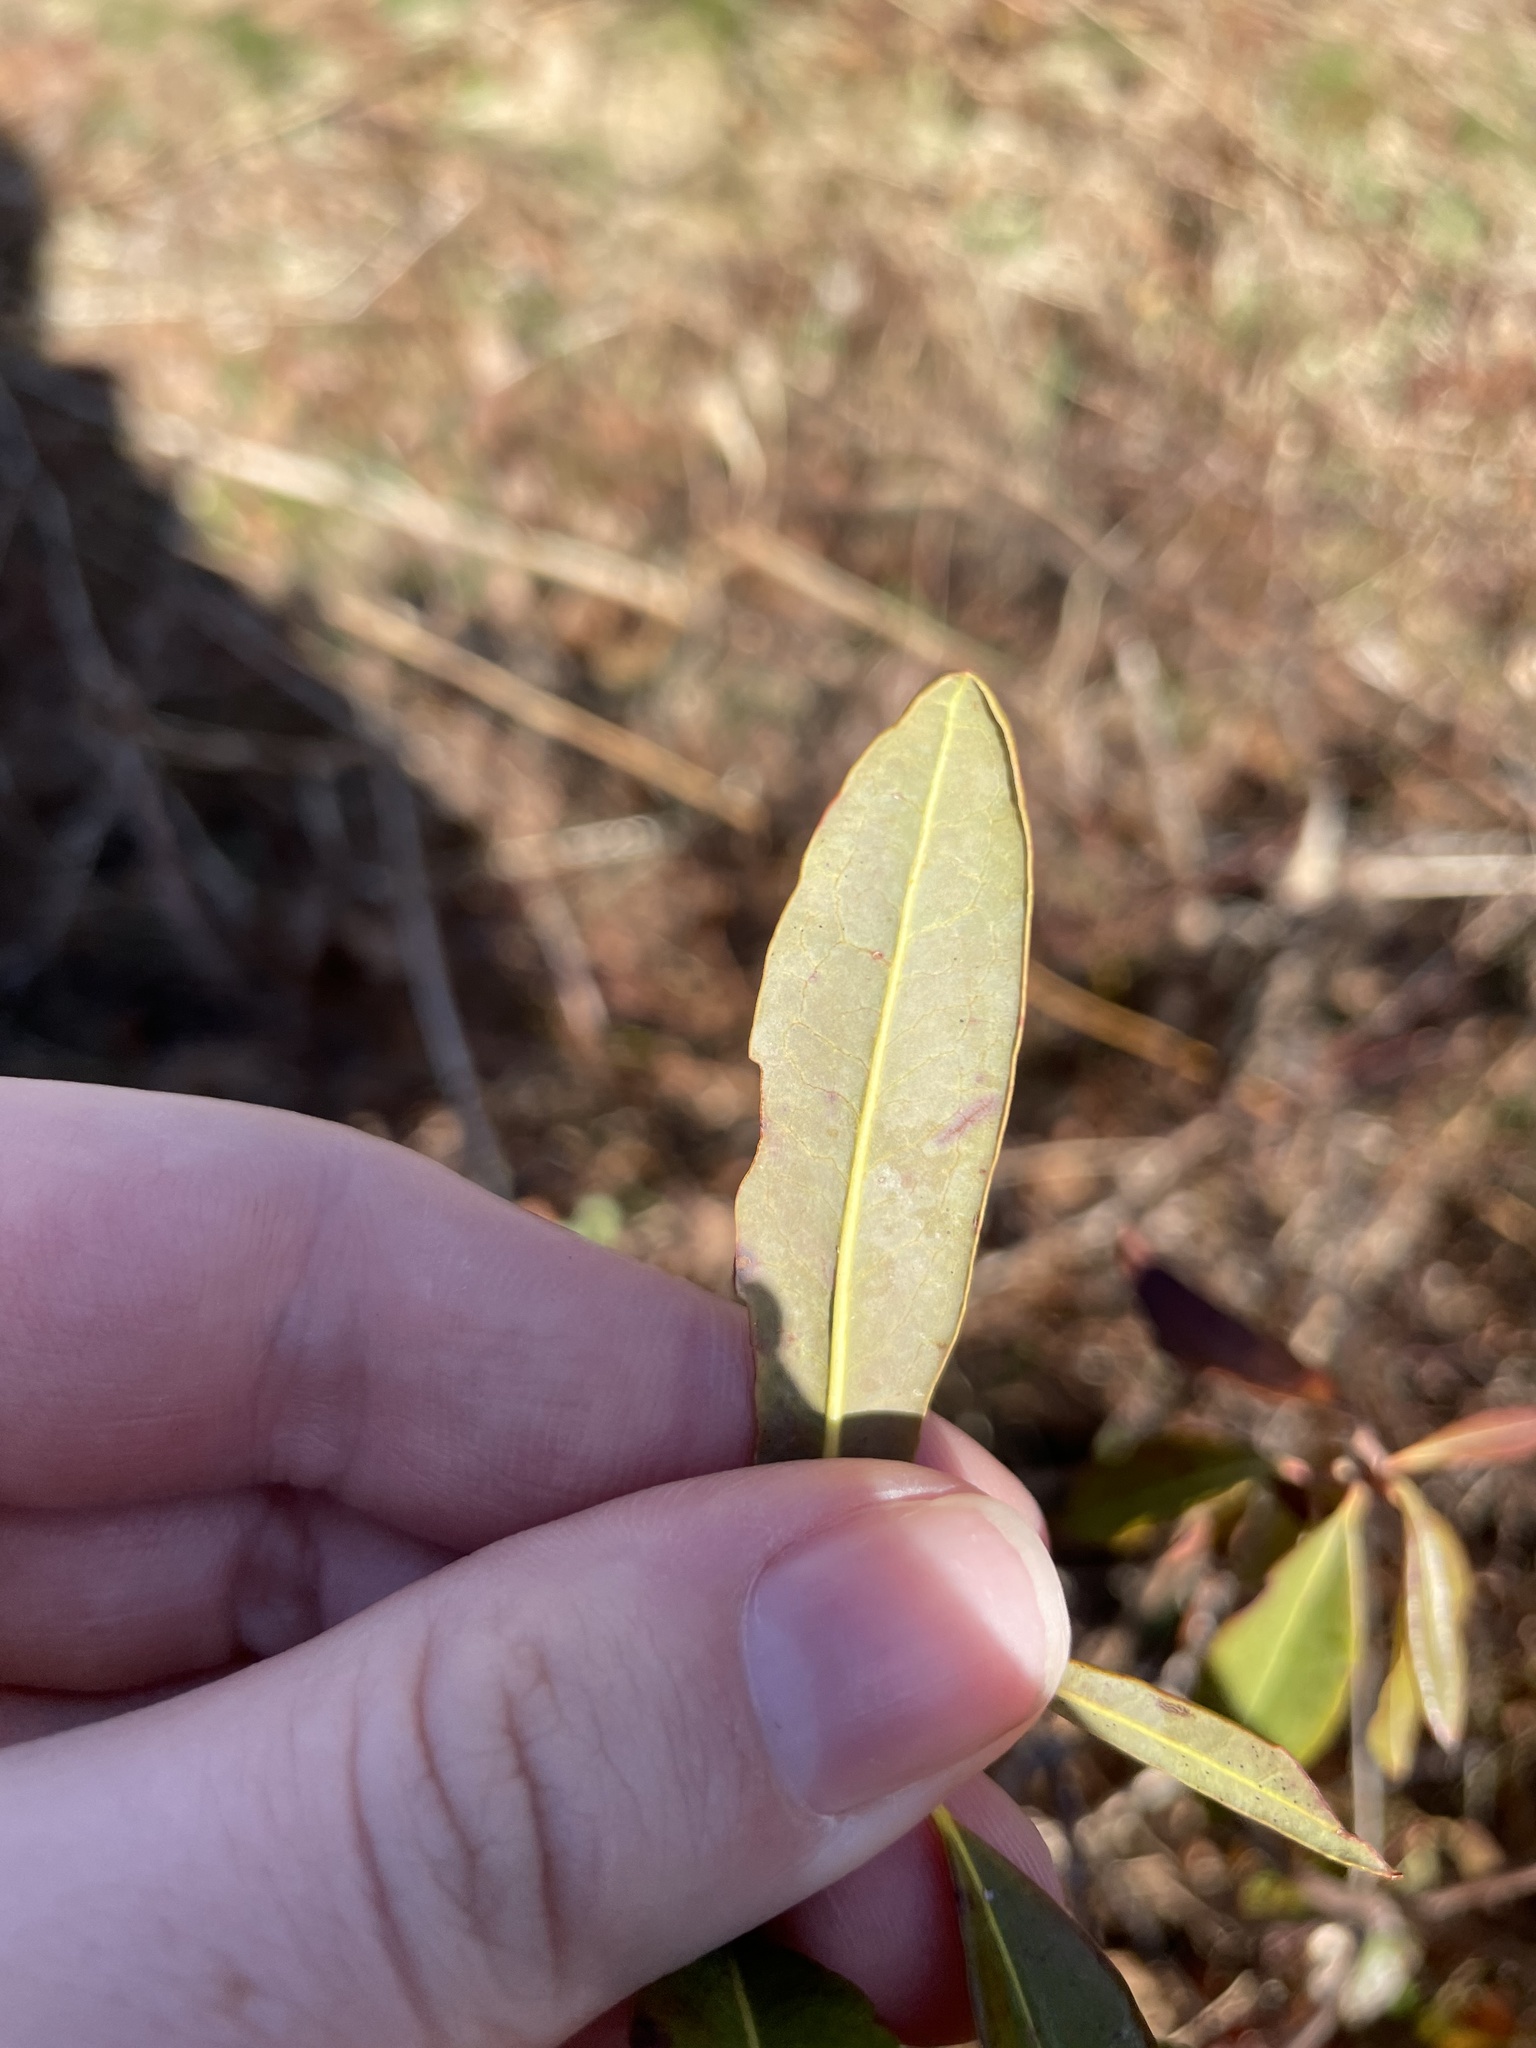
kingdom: Plantae
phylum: Tracheophyta
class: Magnoliopsida
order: Ericales
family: Ericaceae
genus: Kalmia
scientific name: Kalmia angustifolia
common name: Sheep-laurel
